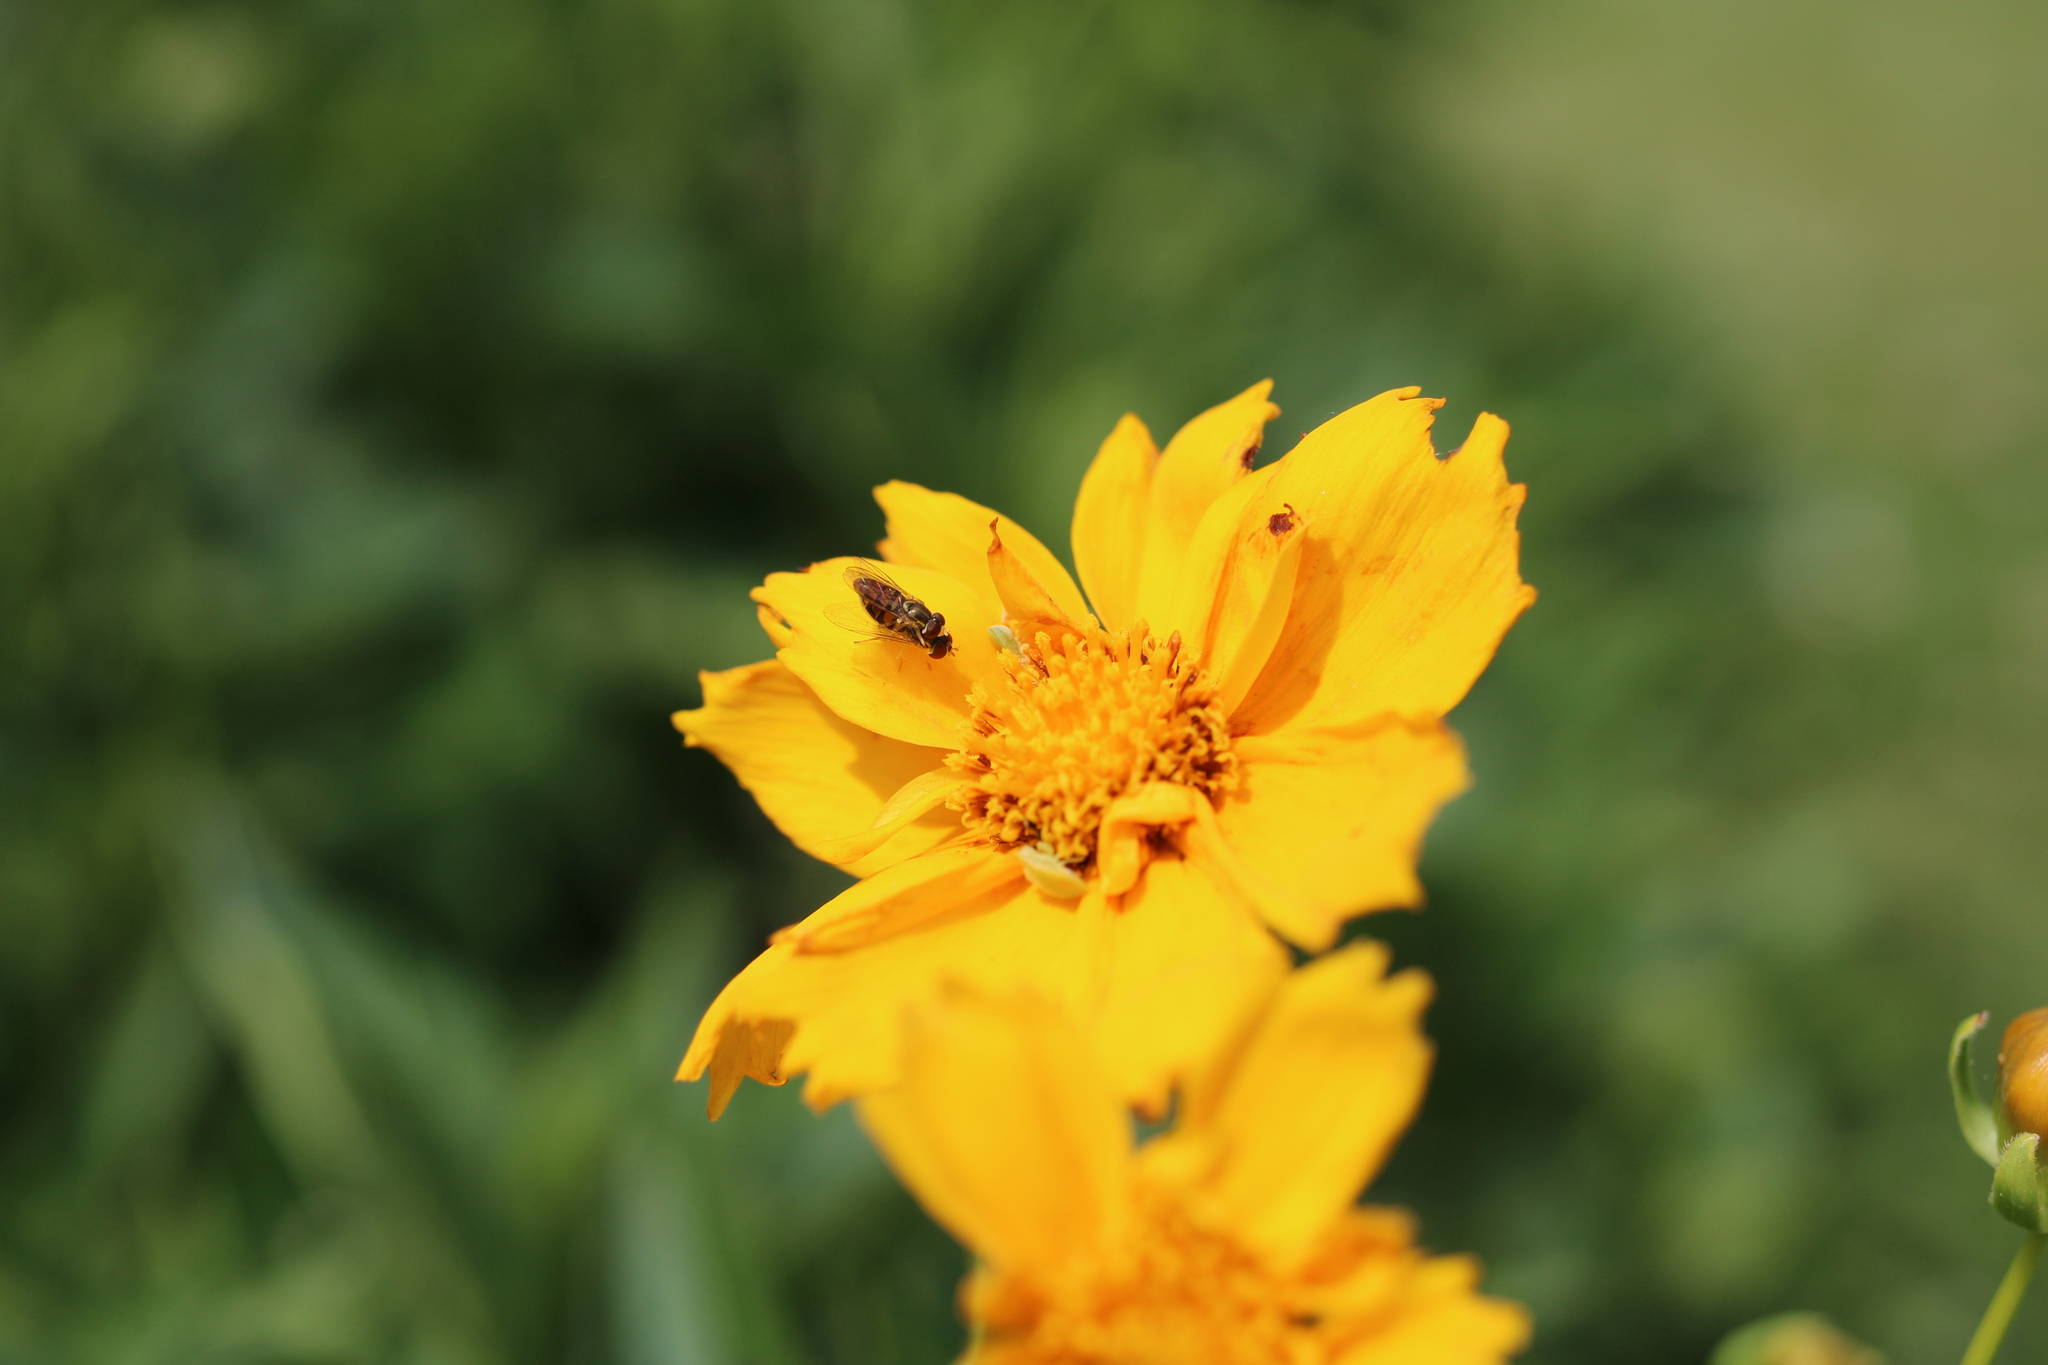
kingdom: Animalia
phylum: Arthropoda
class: Insecta
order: Diptera
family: Syrphidae
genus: Toxomerus
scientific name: Toxomerus marginatus
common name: Syrphid fly
